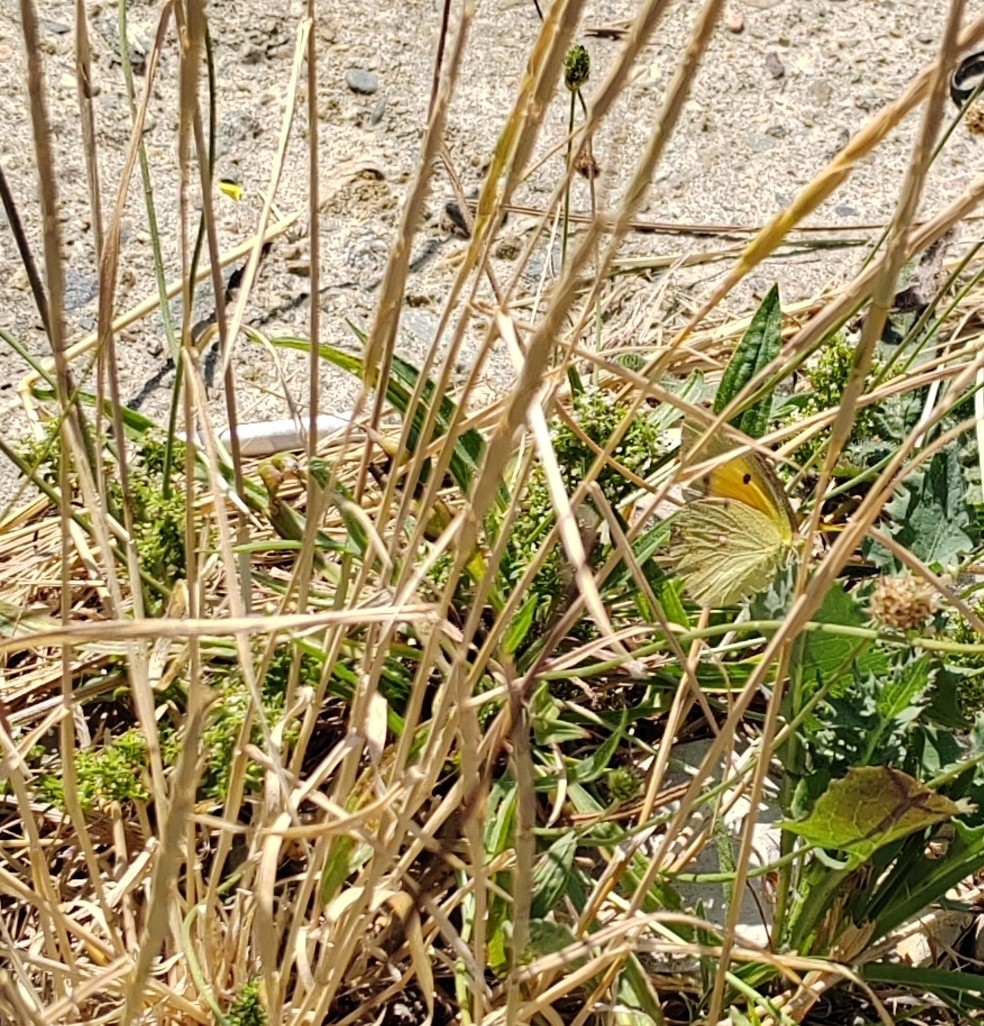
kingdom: Animalia
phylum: Arthropoda
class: Insecta
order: Lepidoptera
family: Pieridae
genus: Colias
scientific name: Colias croceus
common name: Clouded yellow
